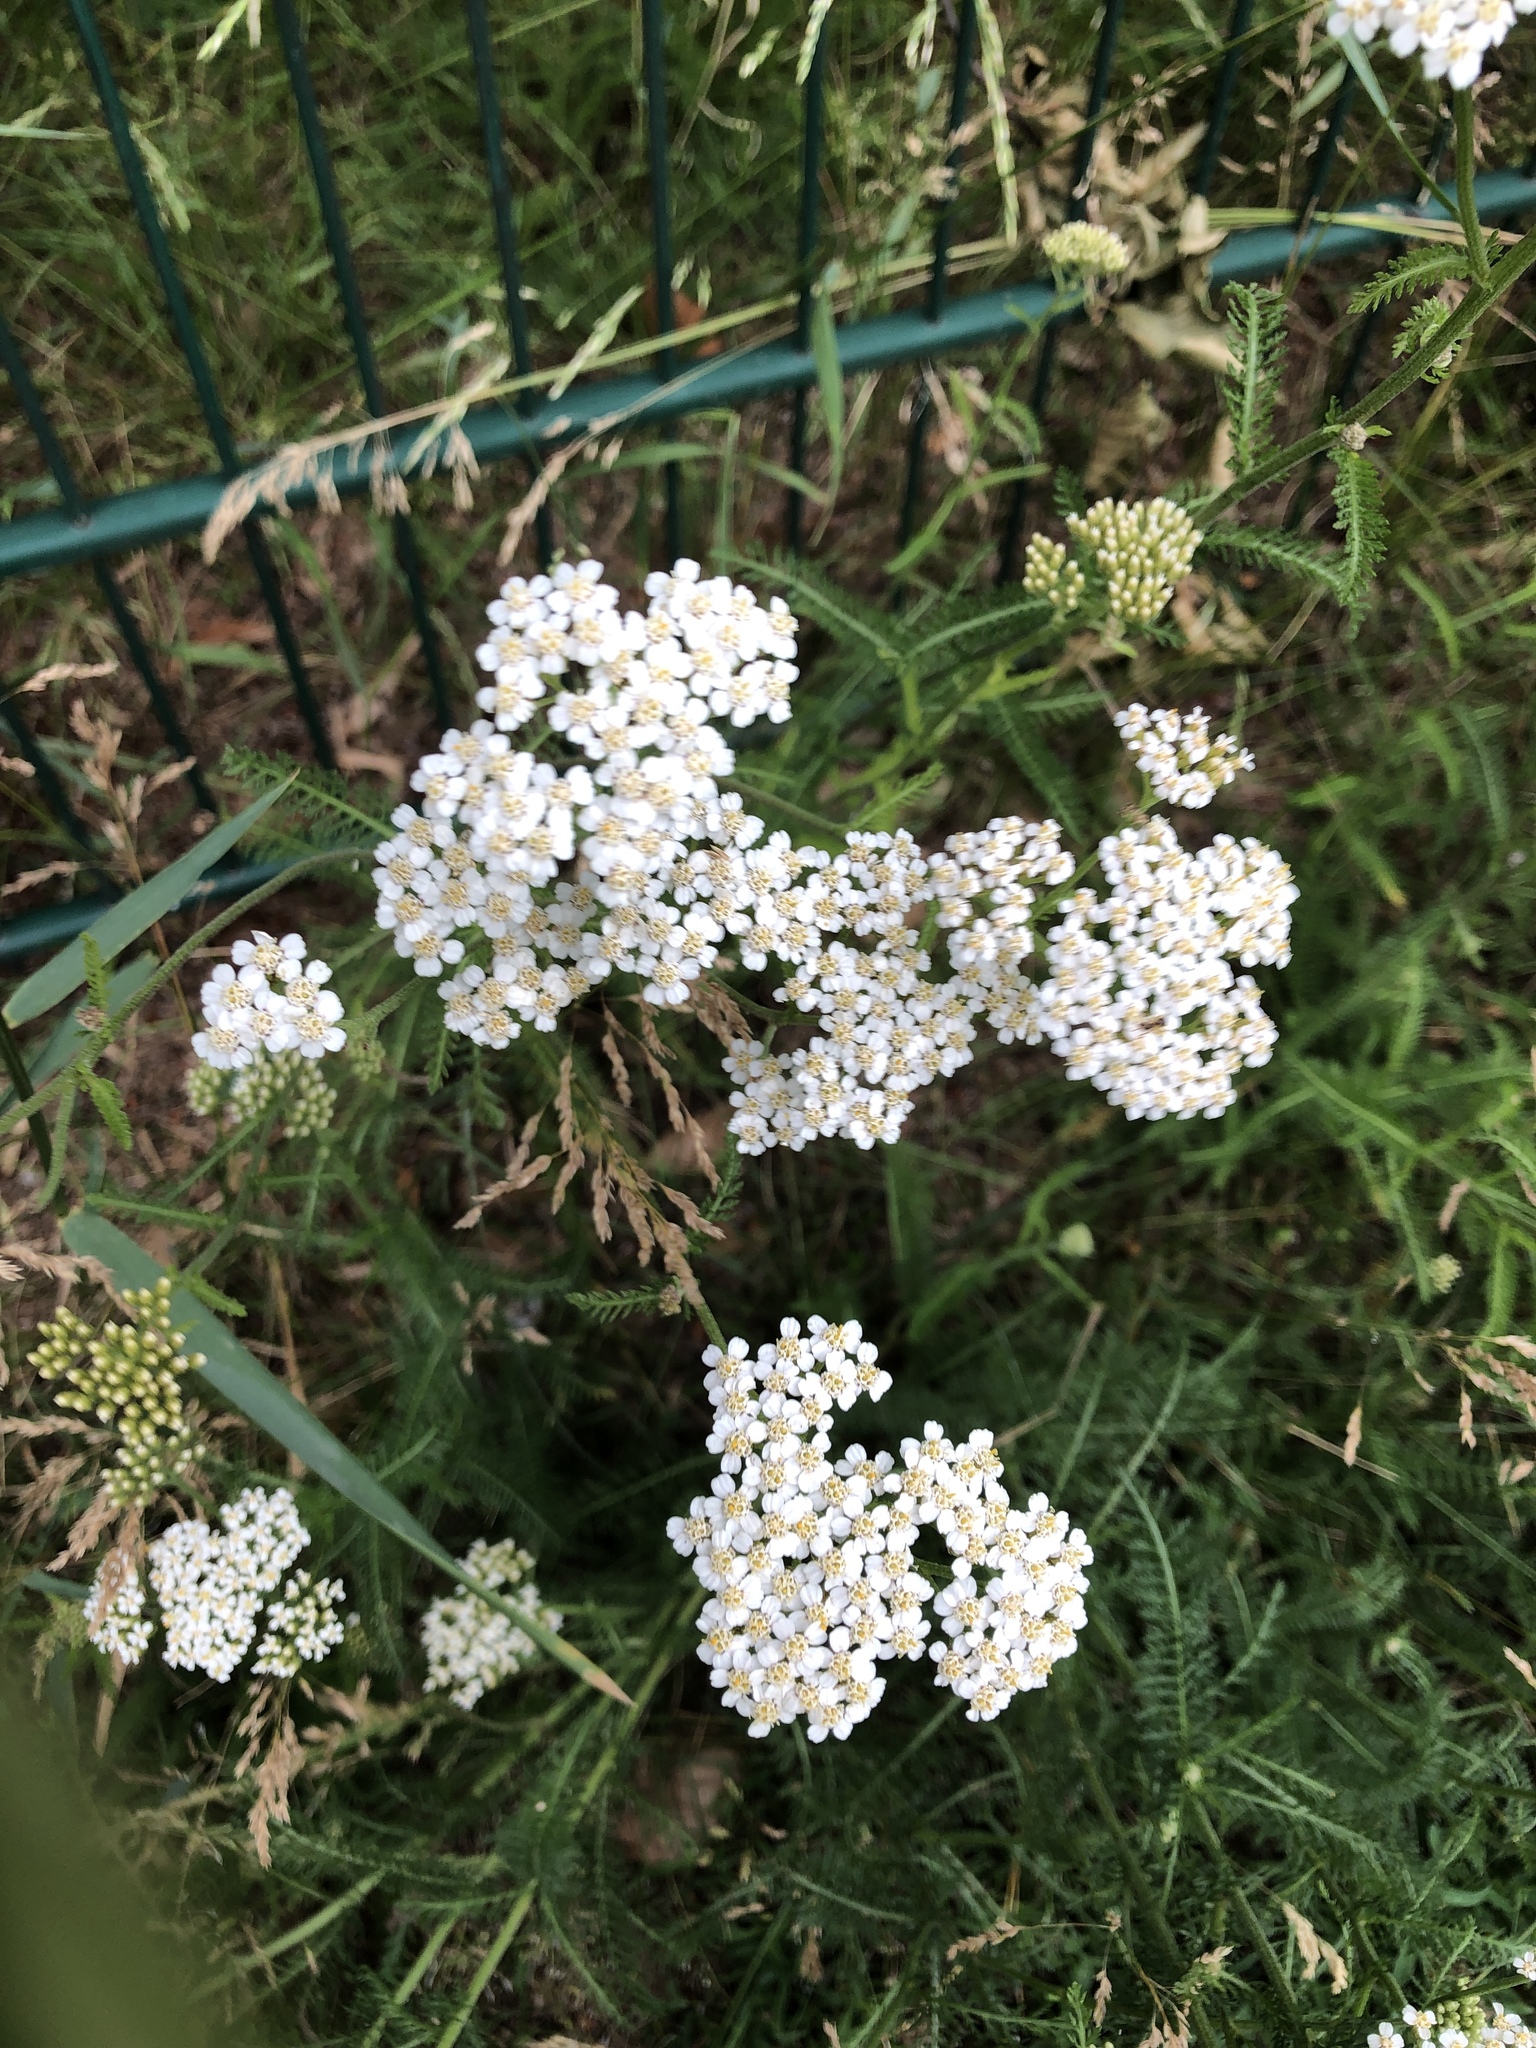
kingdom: Plantae
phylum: Tracheophyta
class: Magnoliopsida
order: Asterales
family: Asteraceae
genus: Achillea
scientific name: Achillea millefolium
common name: Yarrow
